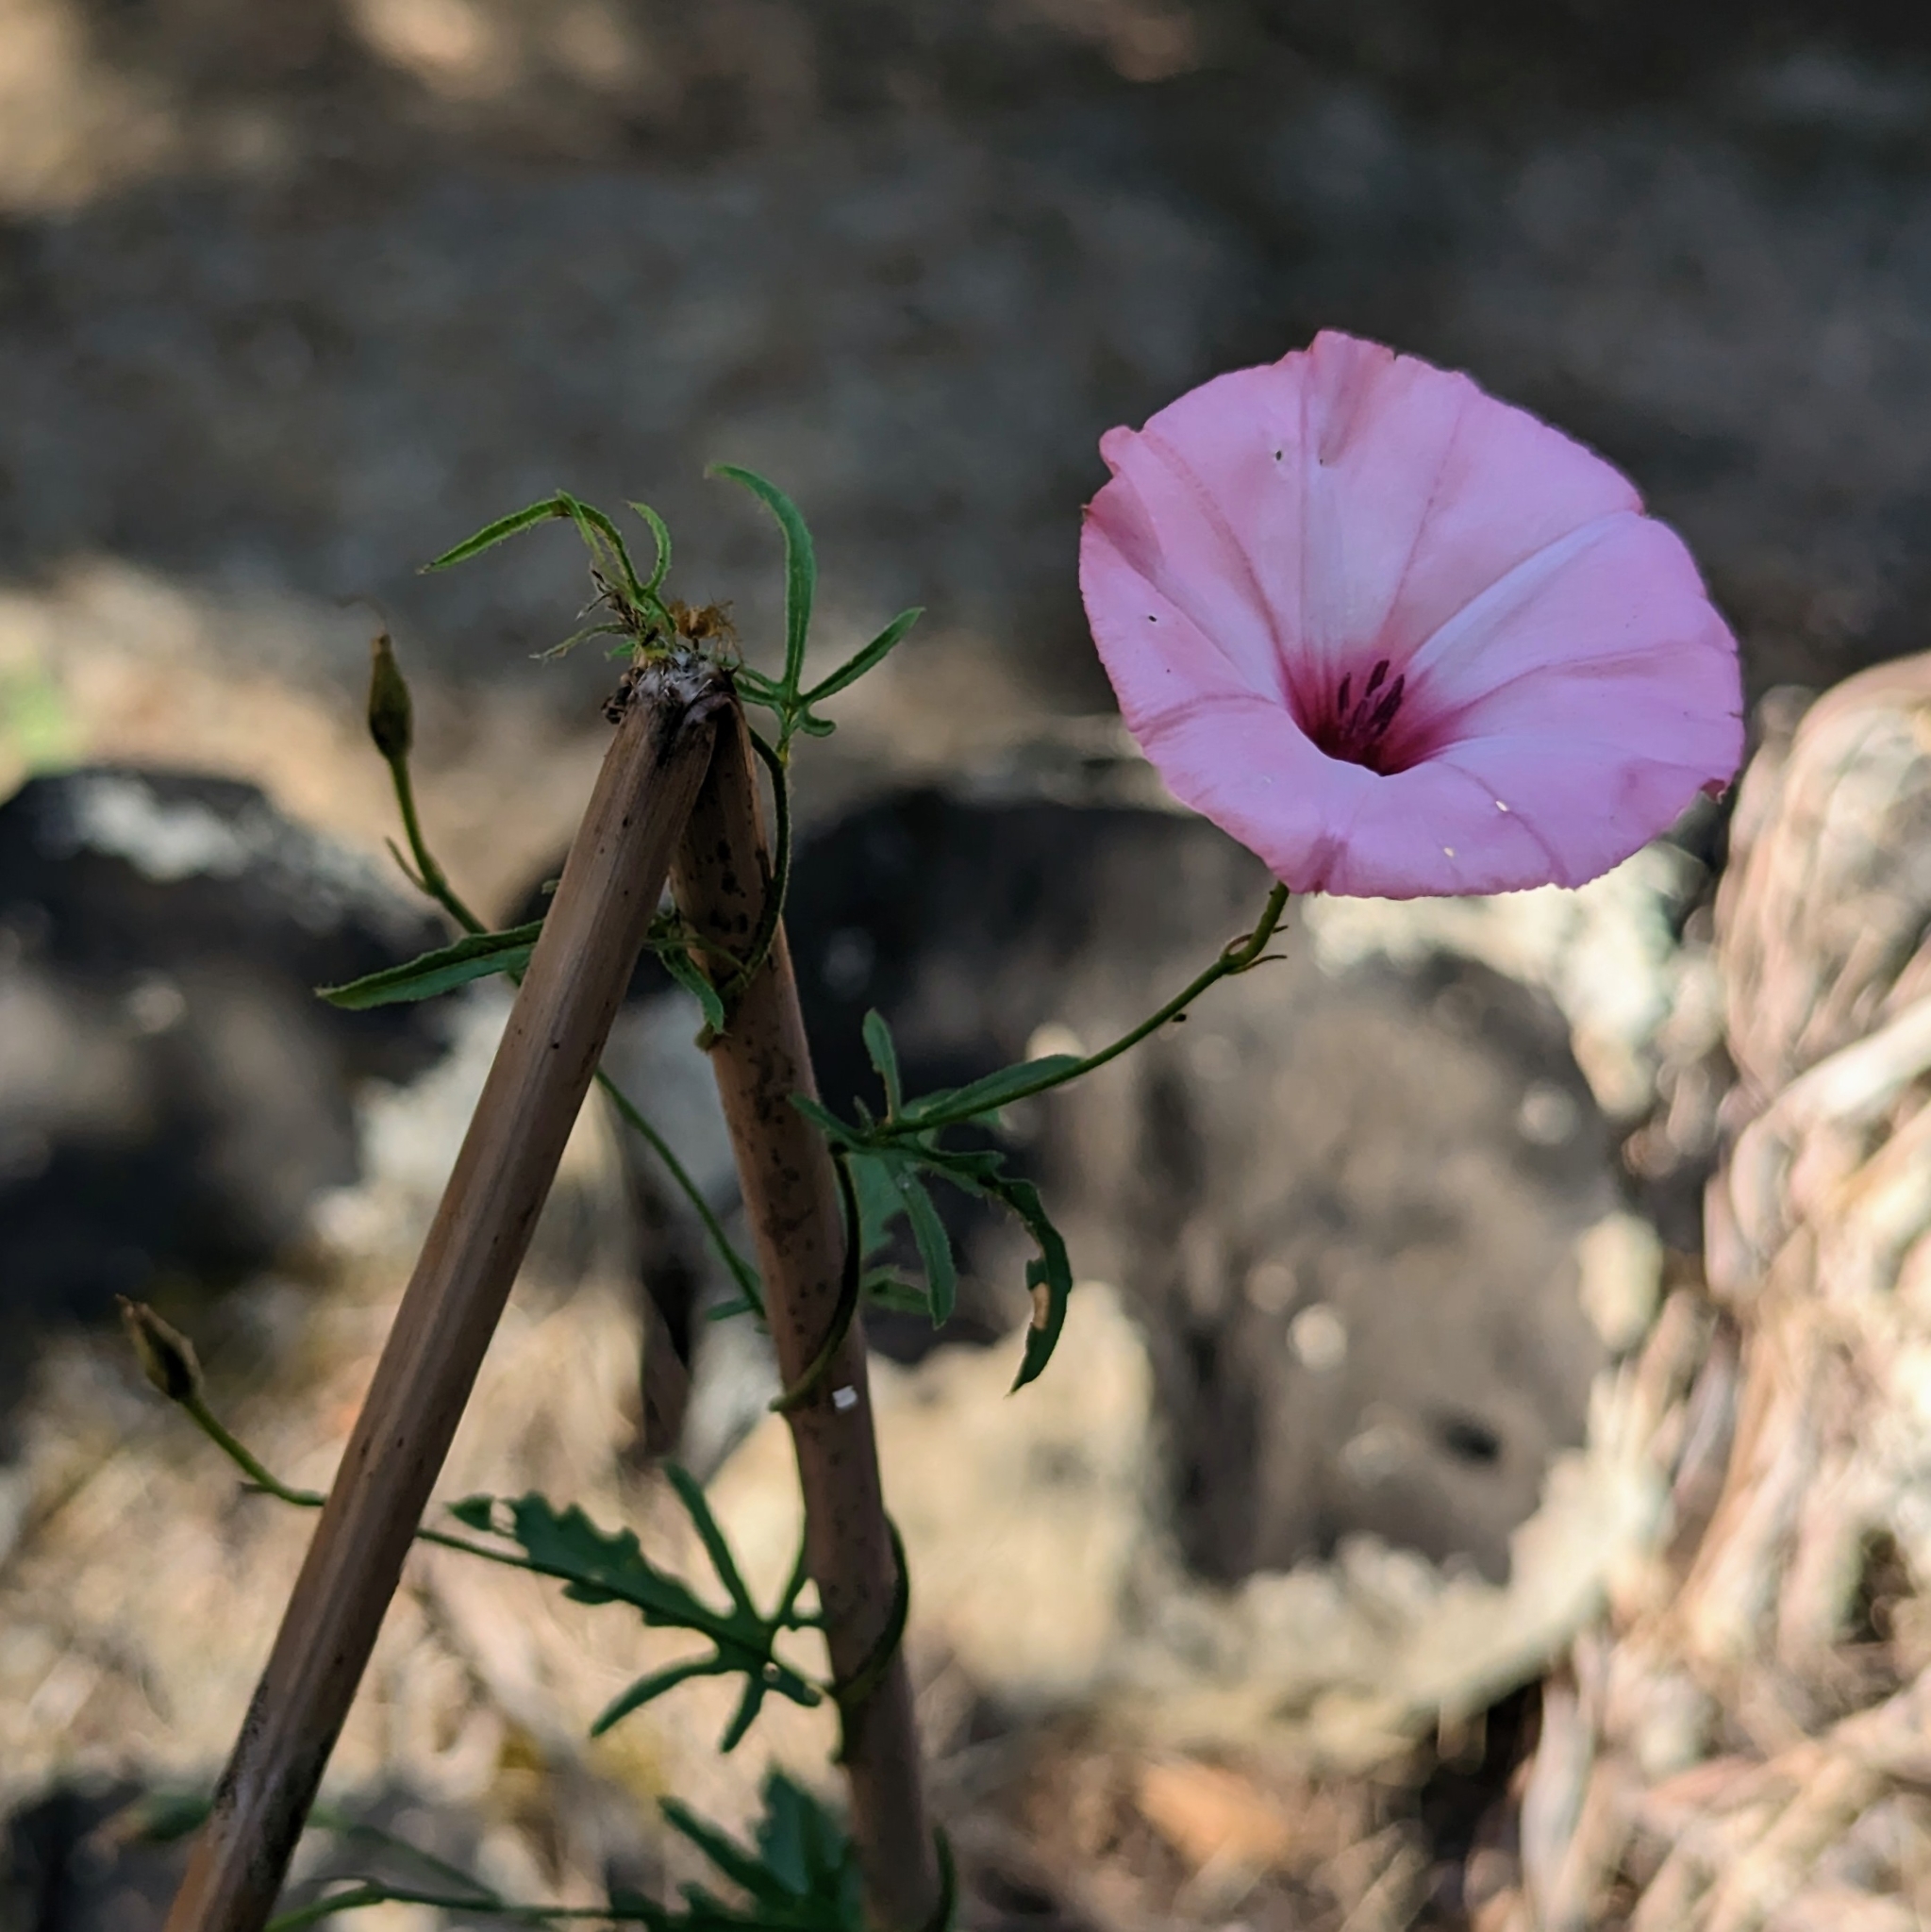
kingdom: Plantae
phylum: Tracheophyta
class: Magnoliopsida
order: Solanales
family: Convolvulaceae
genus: Convolvulus
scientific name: Convolvulus althaeoides
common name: Mallow bindweed
